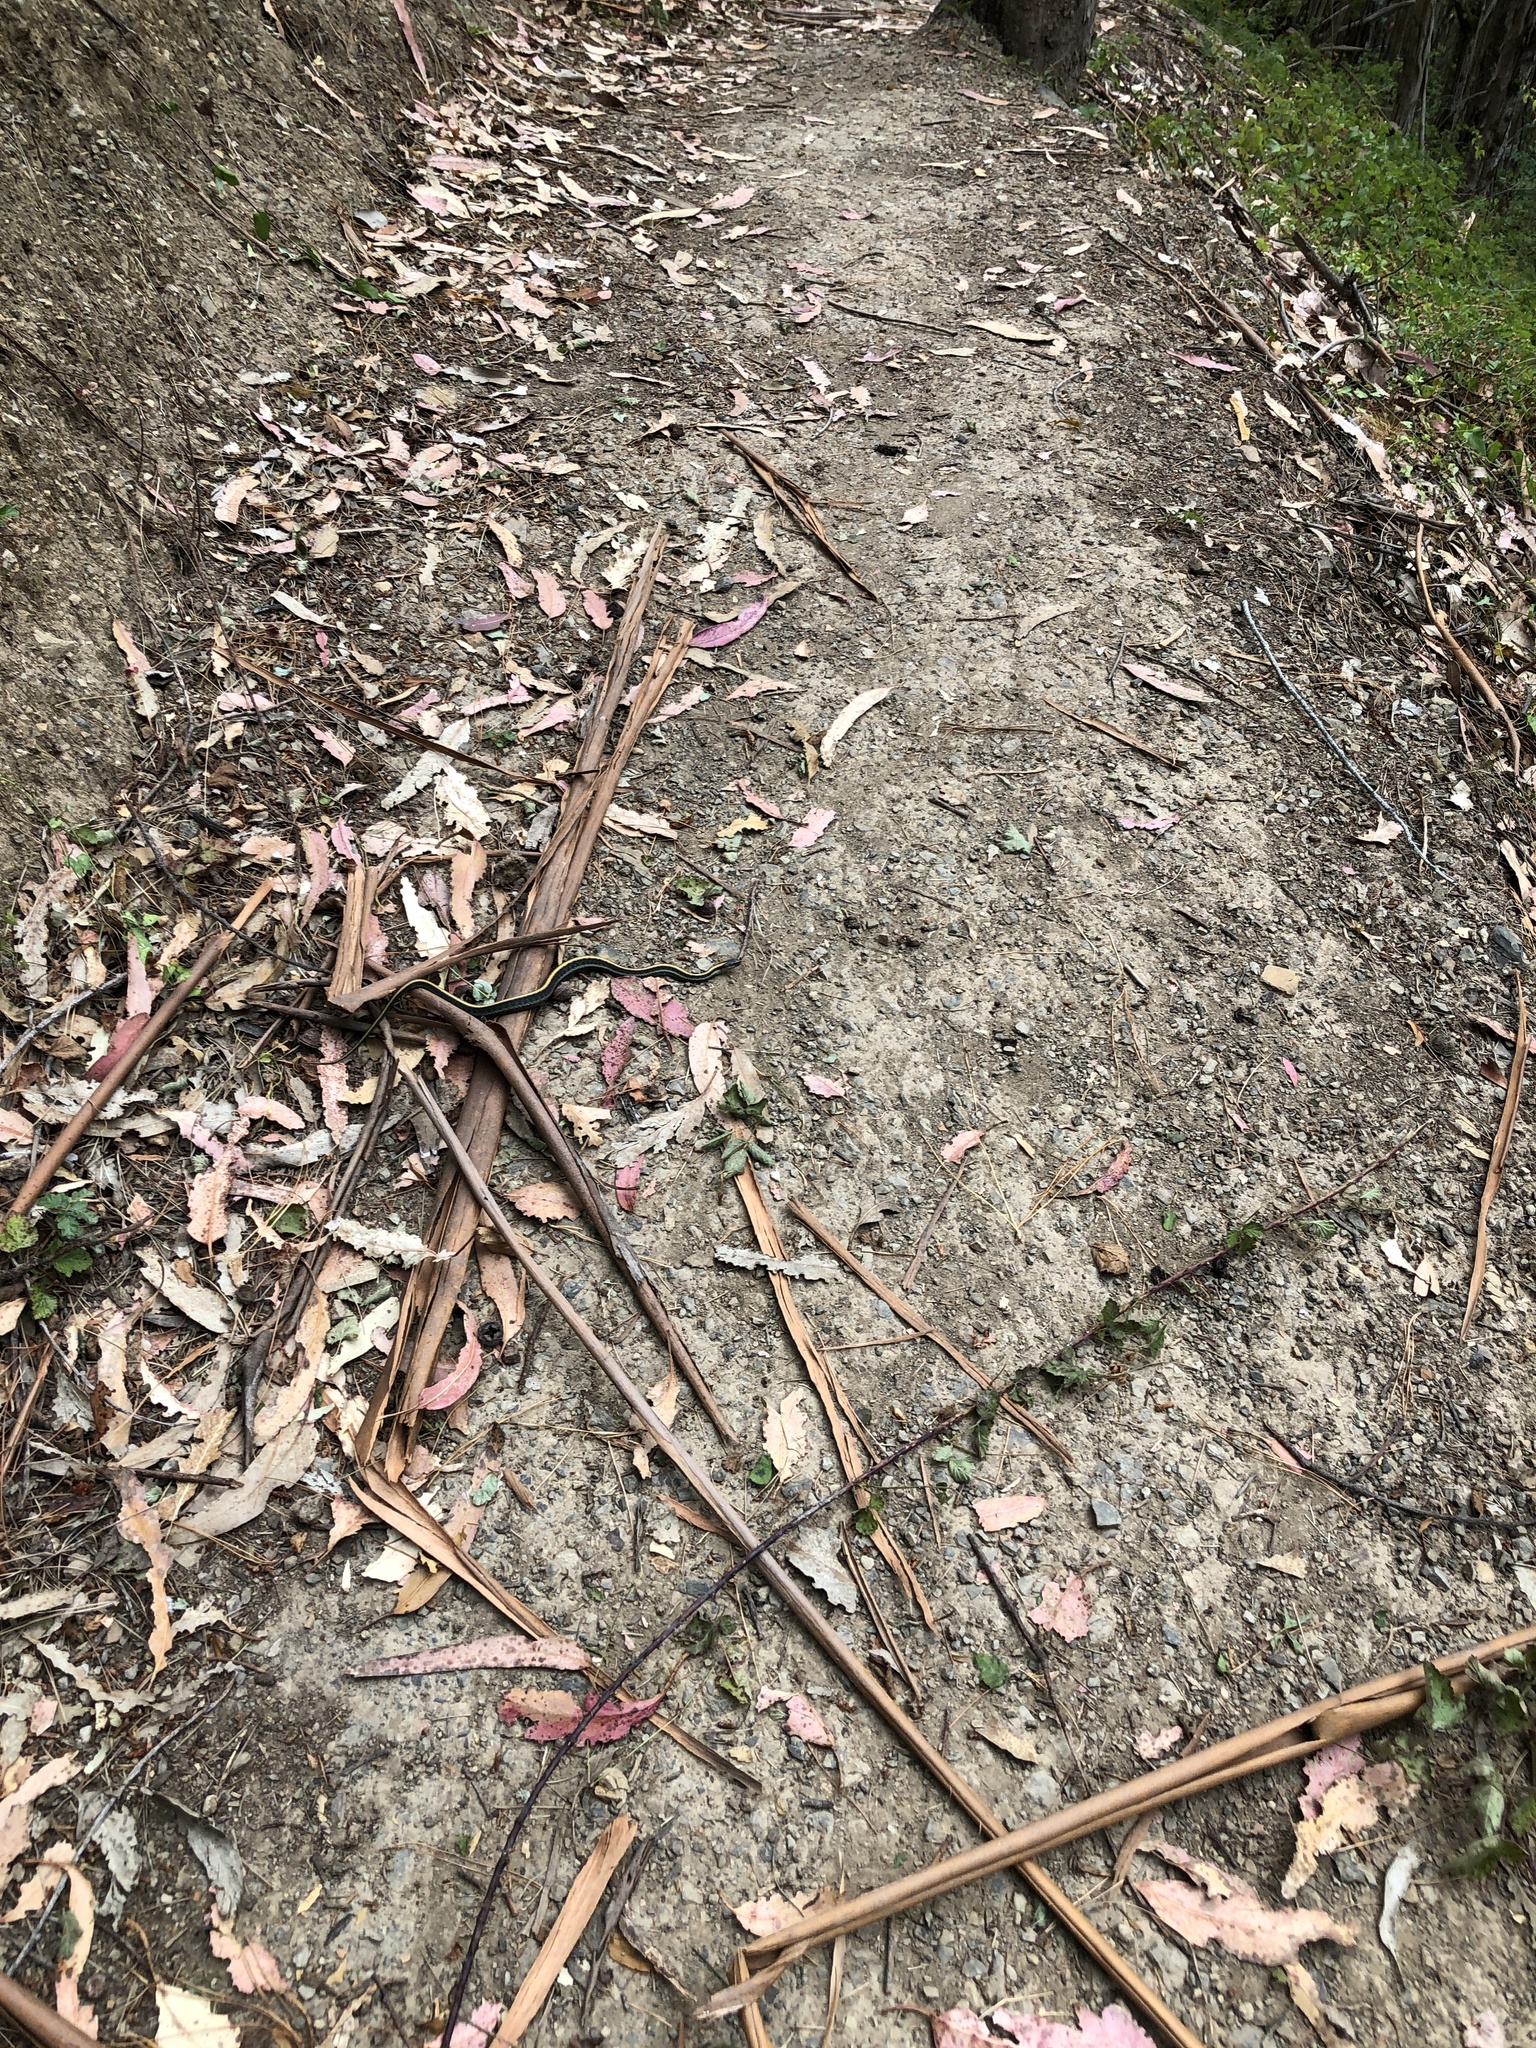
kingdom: Animalia
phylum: Chordata
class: Squamata
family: Colubridae
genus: Thamnophis
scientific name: Thamnophis atratus
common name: Pacific coast aquatic garter snake
